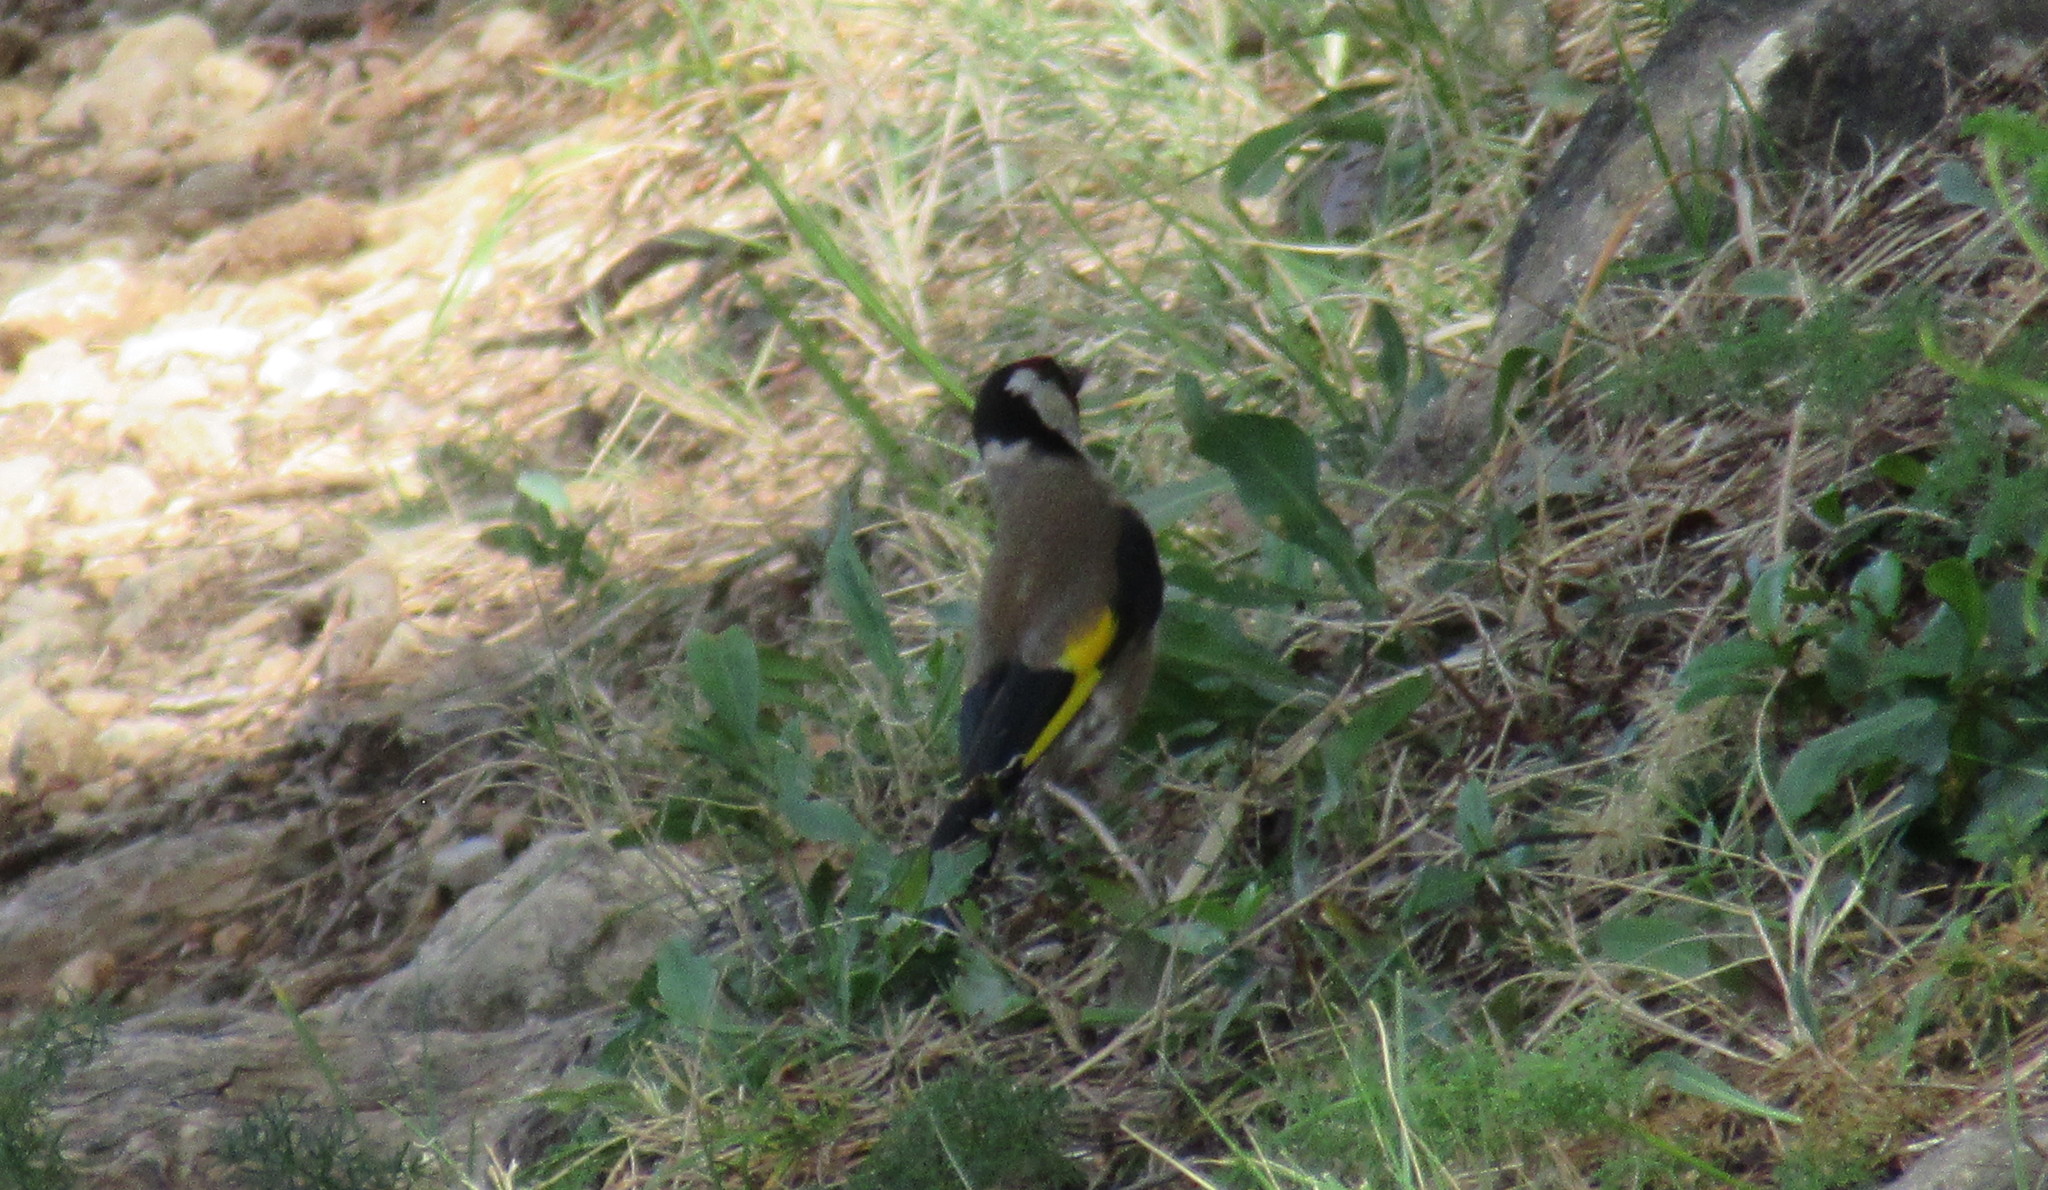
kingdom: Animalia
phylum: Chordata
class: Aves
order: Passeriformes
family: Fringillidae
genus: Carduelis
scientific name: Carduelis carduelis
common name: European goldfinch
